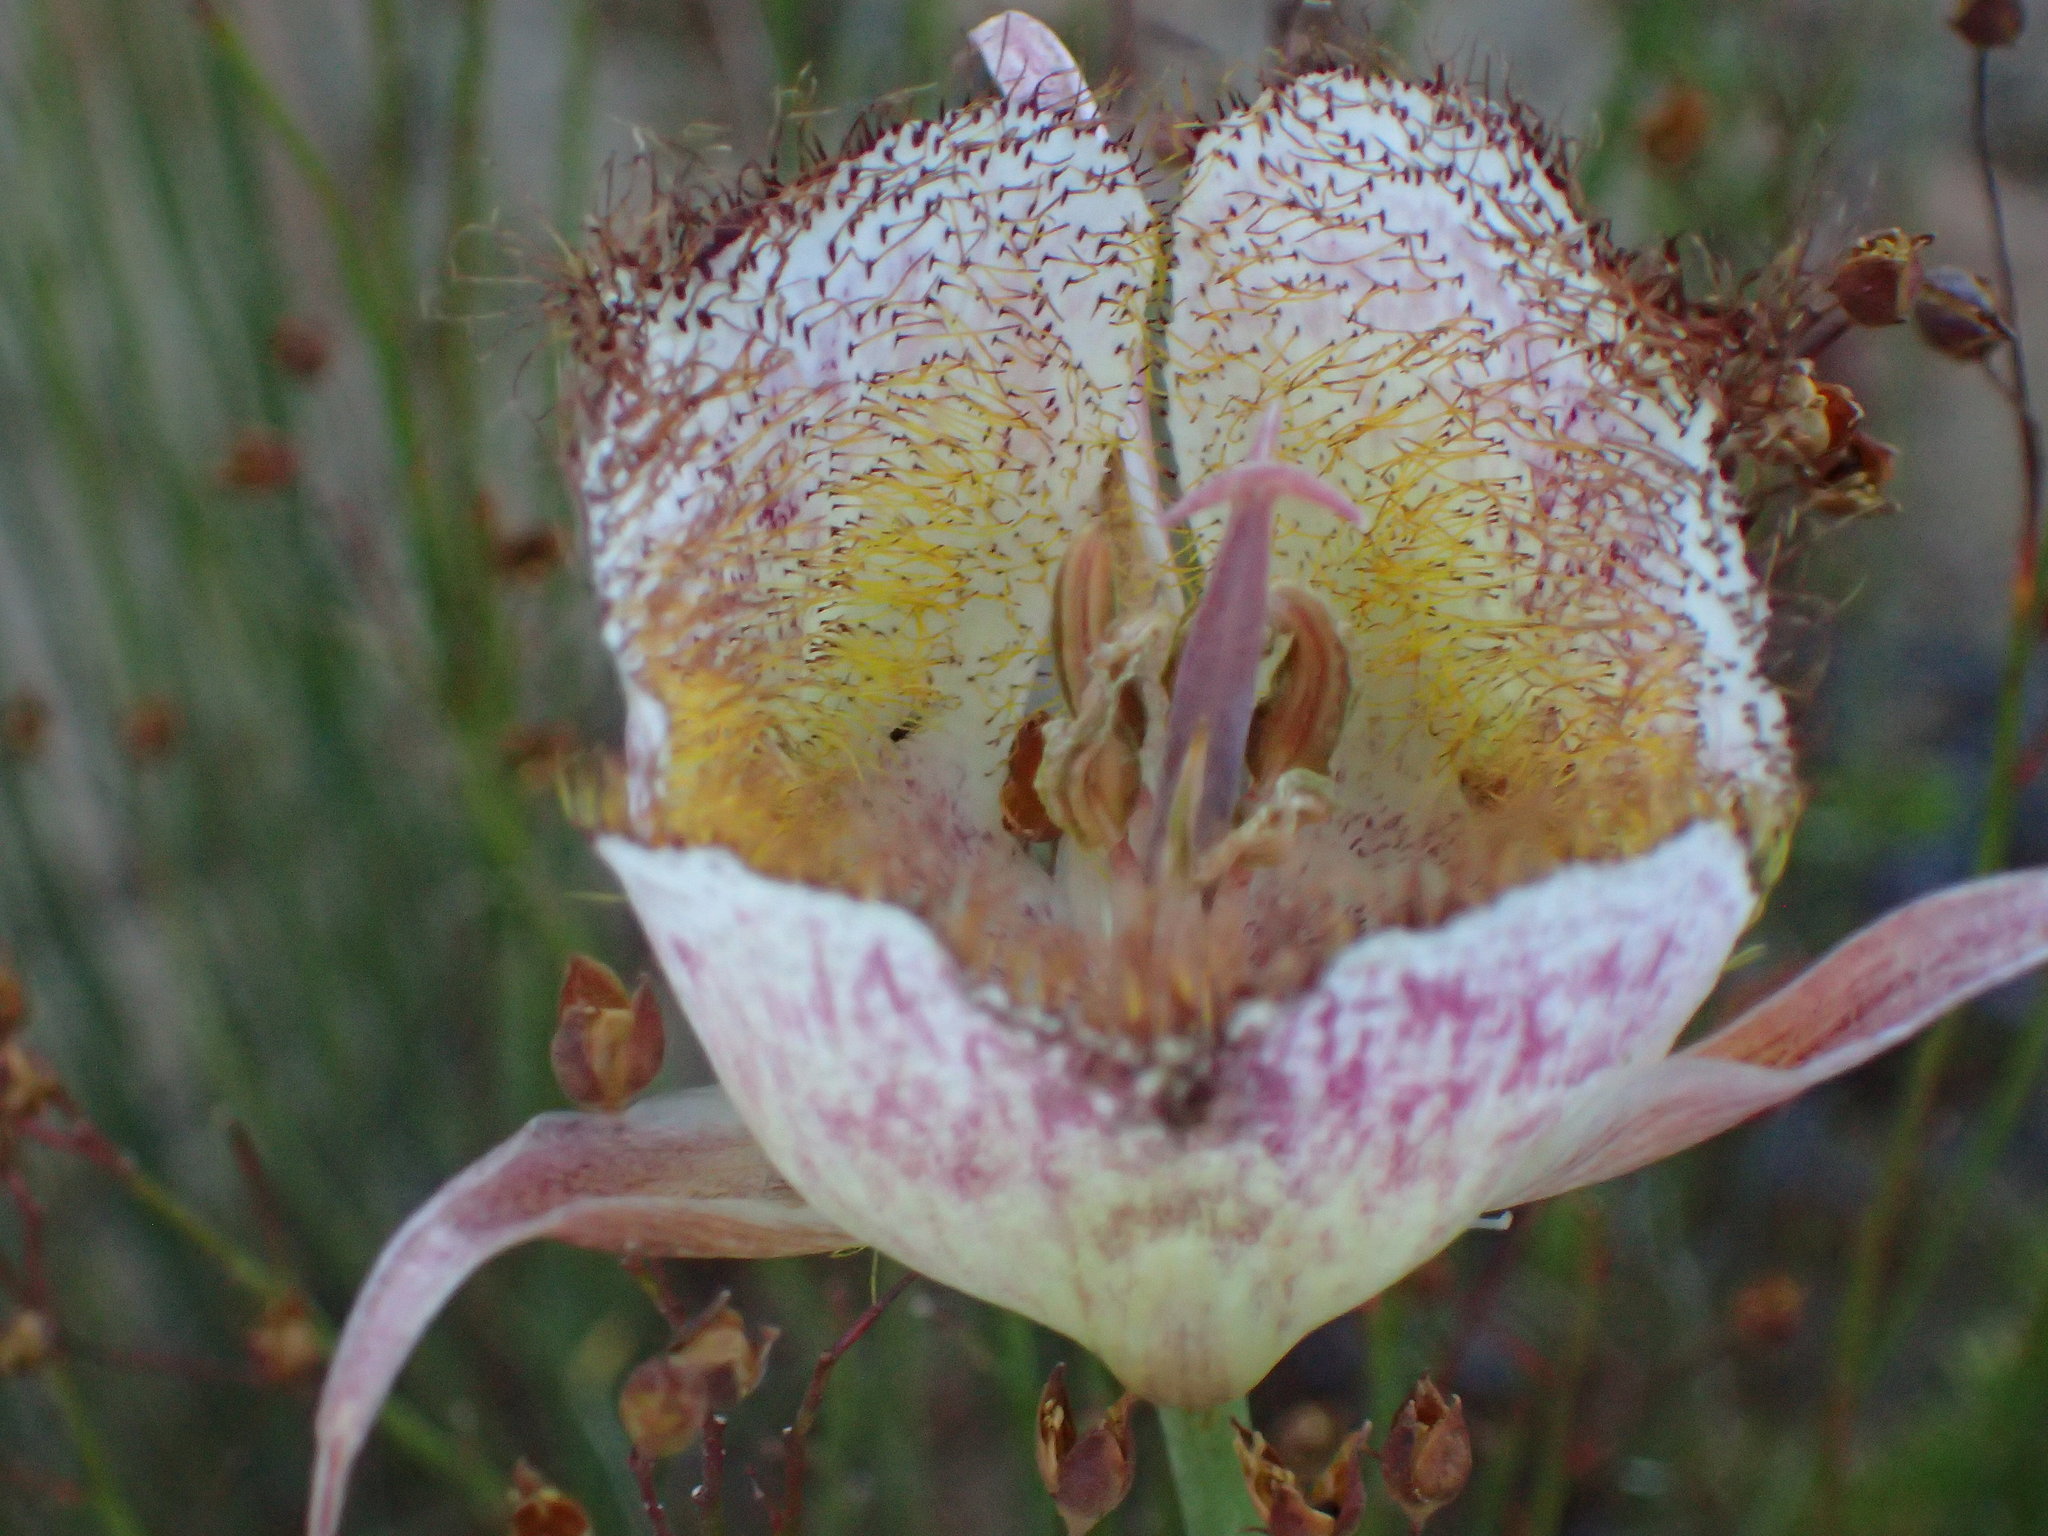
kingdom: Plantae
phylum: Tracheophyta
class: Liliopsida
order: Liliales
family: Liliaceae
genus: Calochortus
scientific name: Calochortus fimbriatus
